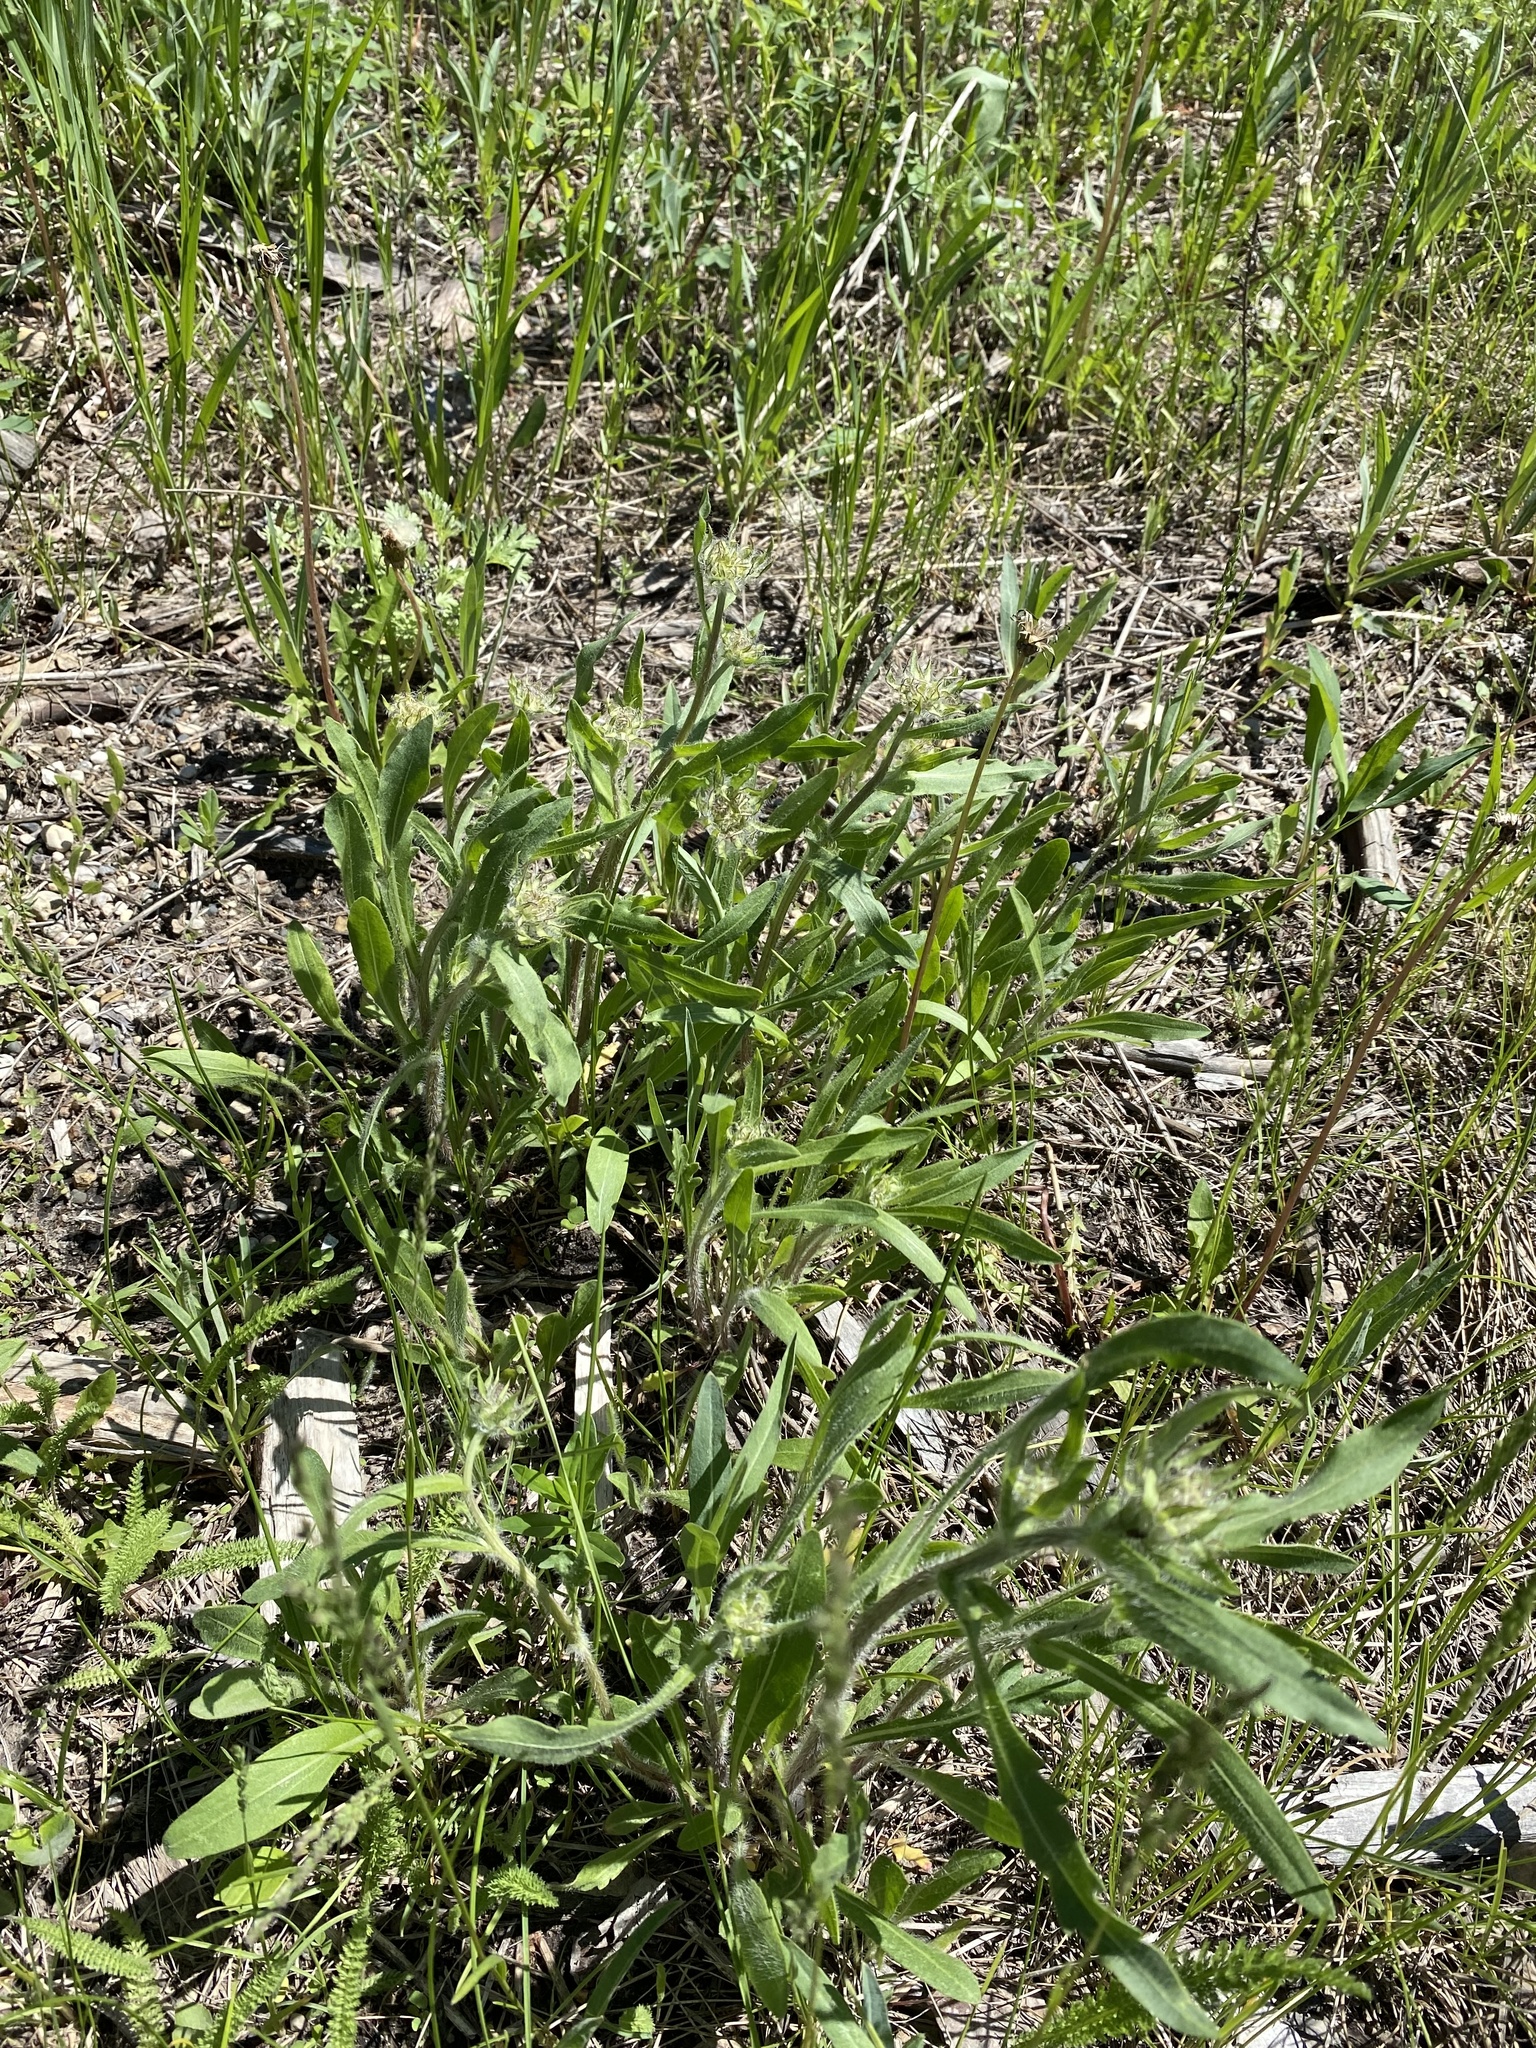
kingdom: Plantae
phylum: Tracheophyta
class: Magnoliopsida
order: Asterales
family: Asteraceae
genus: Gaillardia
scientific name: Gaillardia aristata
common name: Blanket-flower
